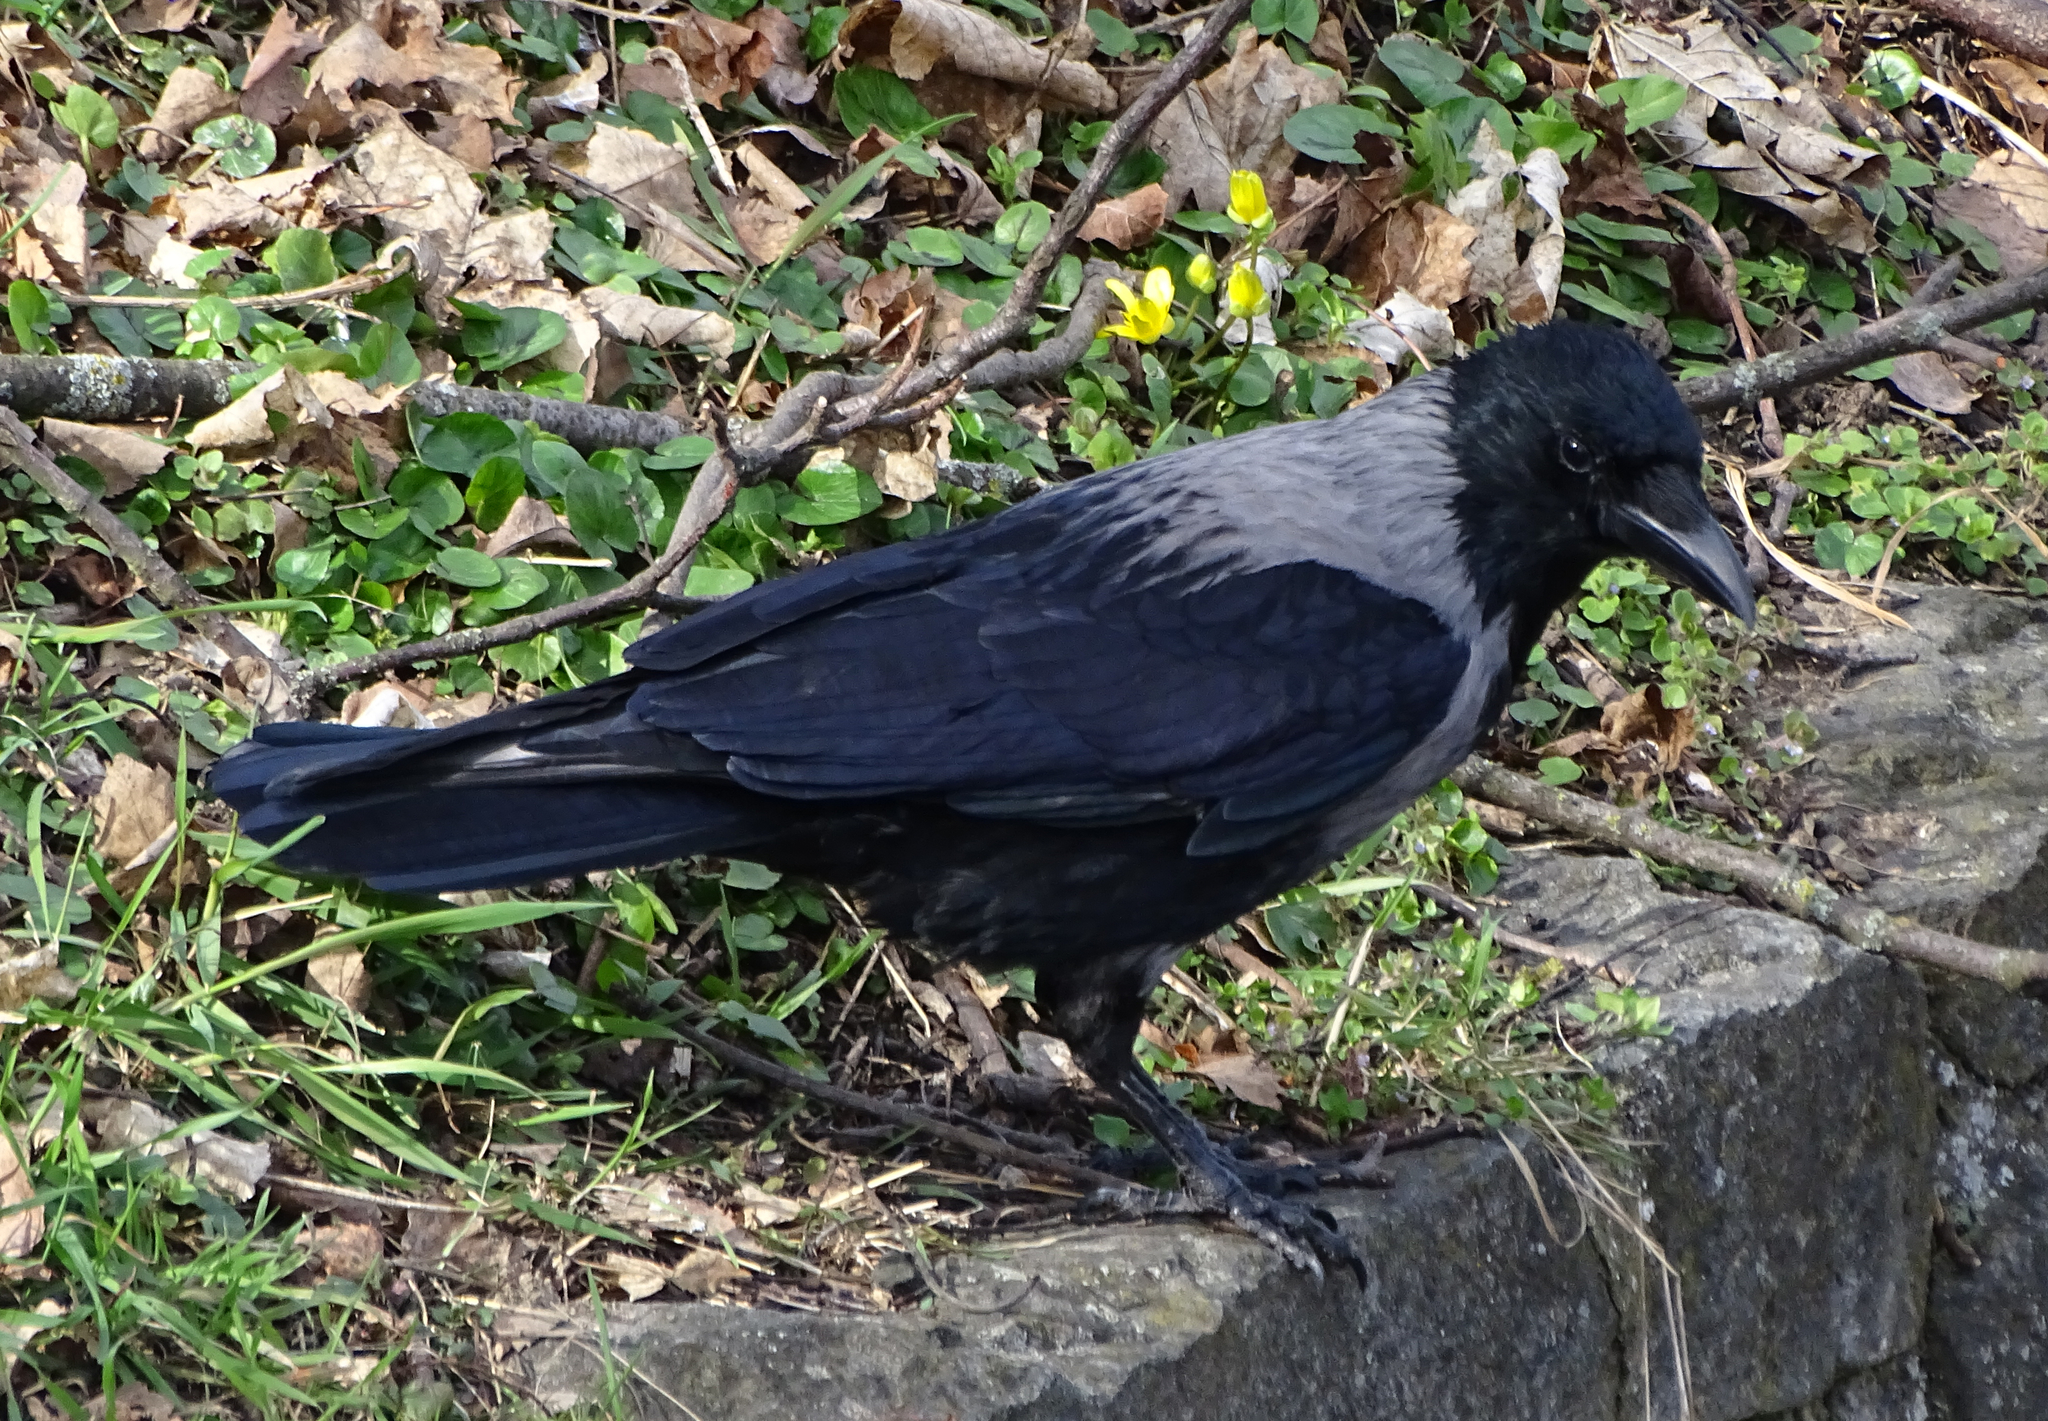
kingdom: Animalia
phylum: Chordata
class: Aves
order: Passeriformes
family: Corvidae
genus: Corvus
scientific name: Corvus
